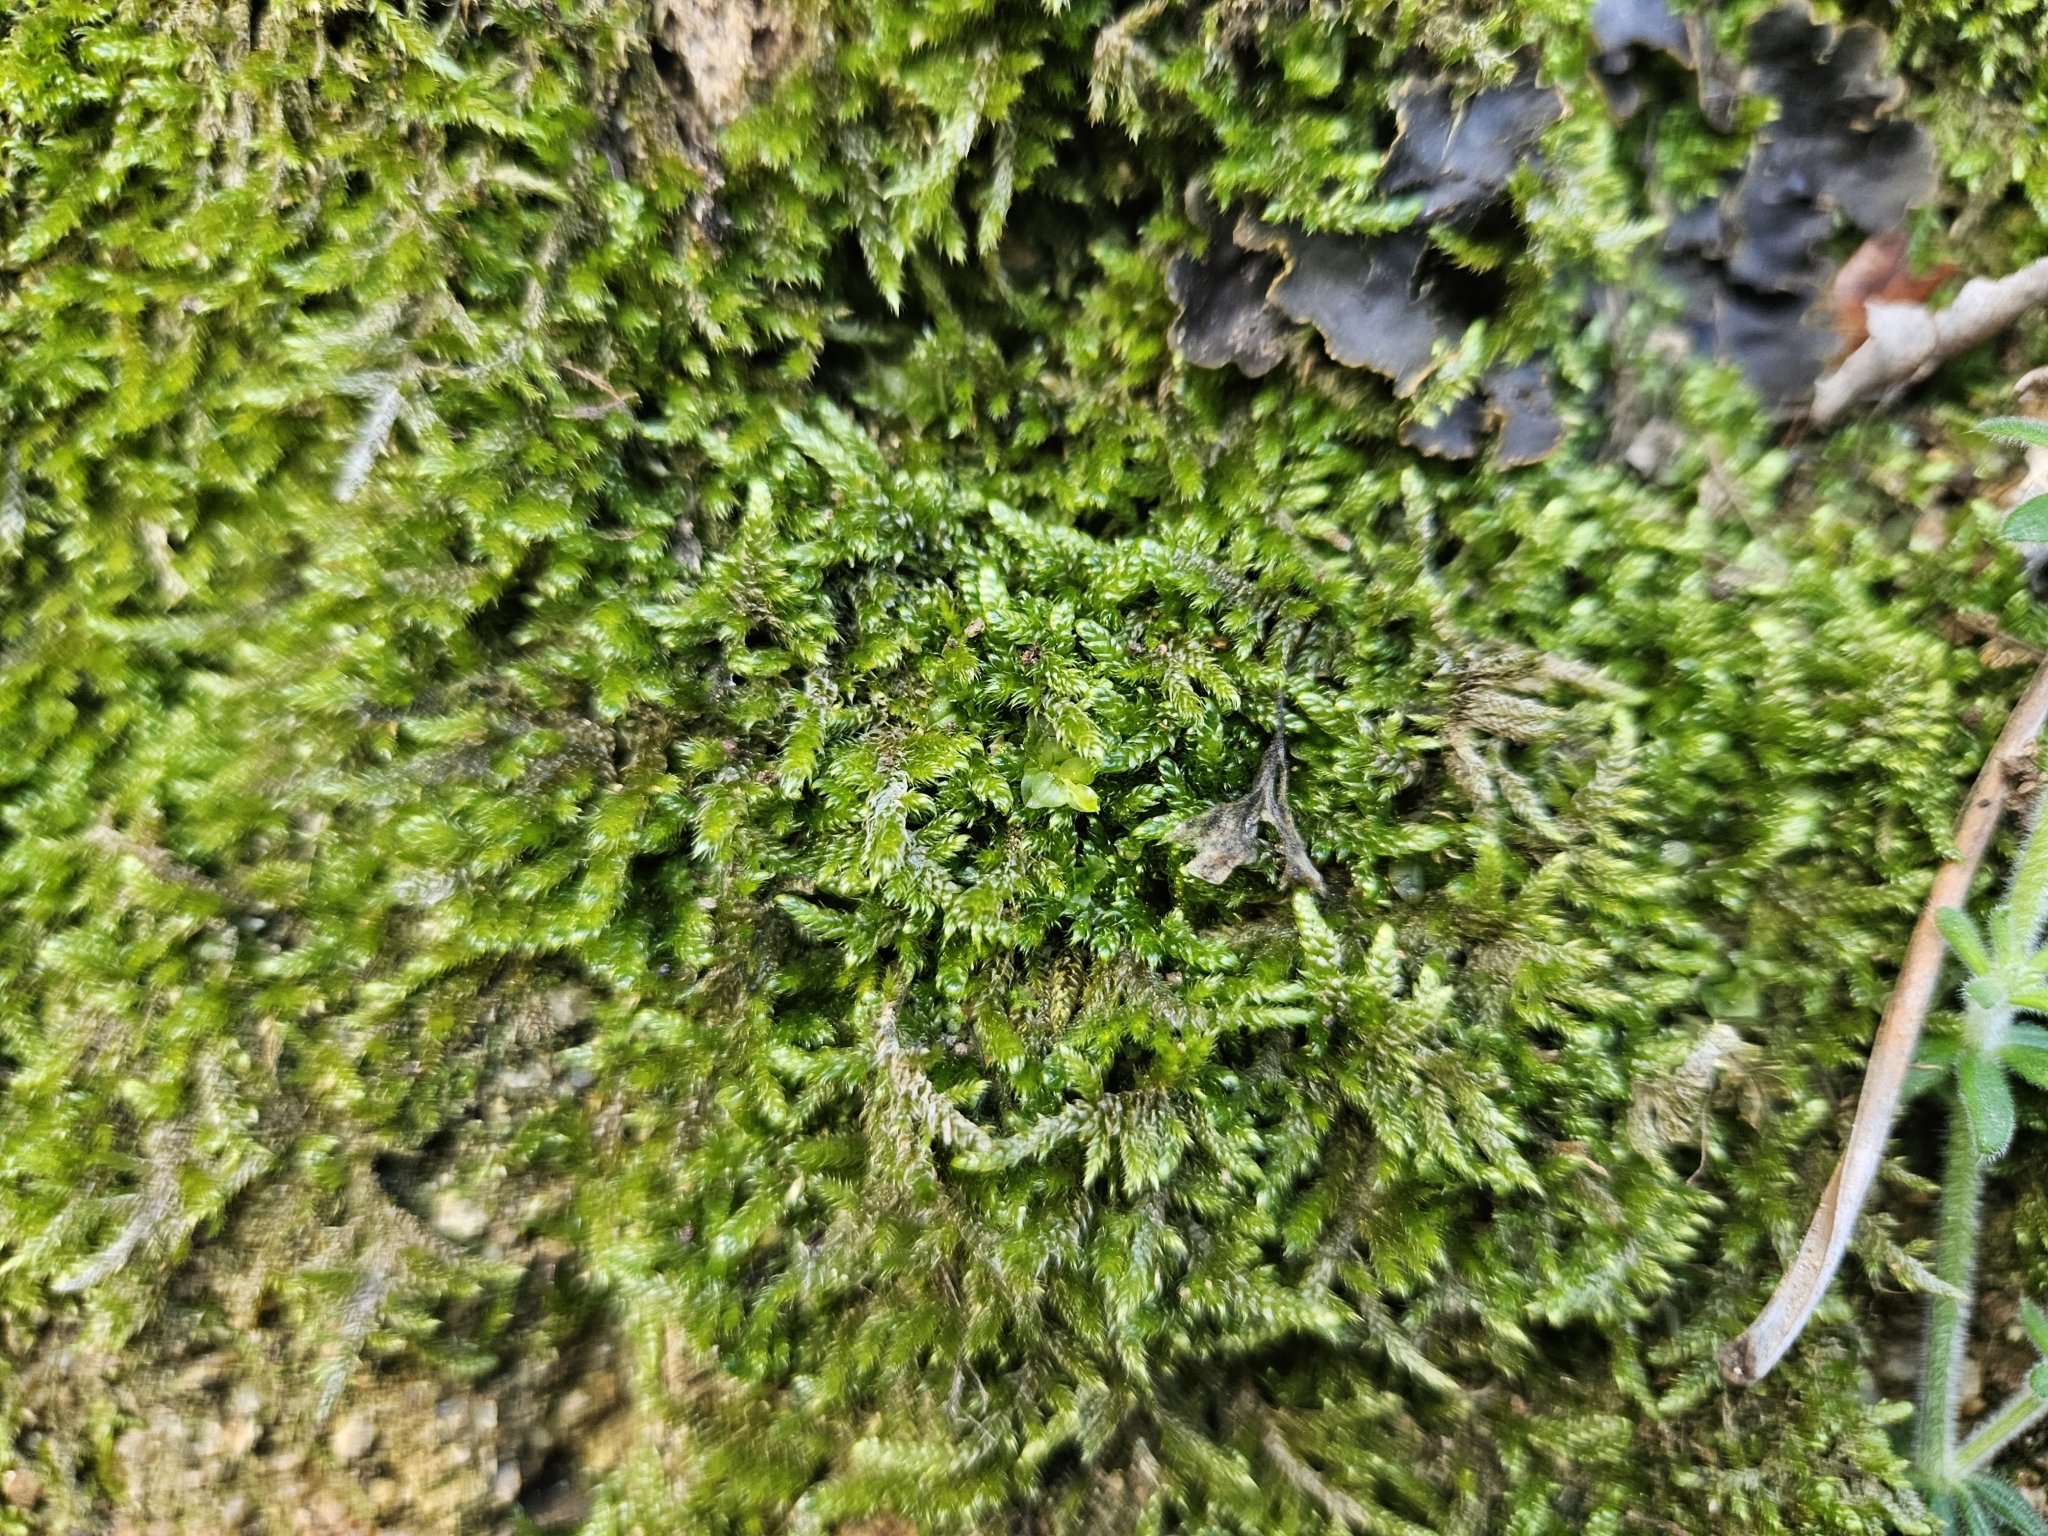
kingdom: Plantae
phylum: Bryophyta
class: Bryopsida
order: Hypnales
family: Hypnaceae
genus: Hypnum
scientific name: Hypnum cupressiforme
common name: Cypress-leaved plait-moss
